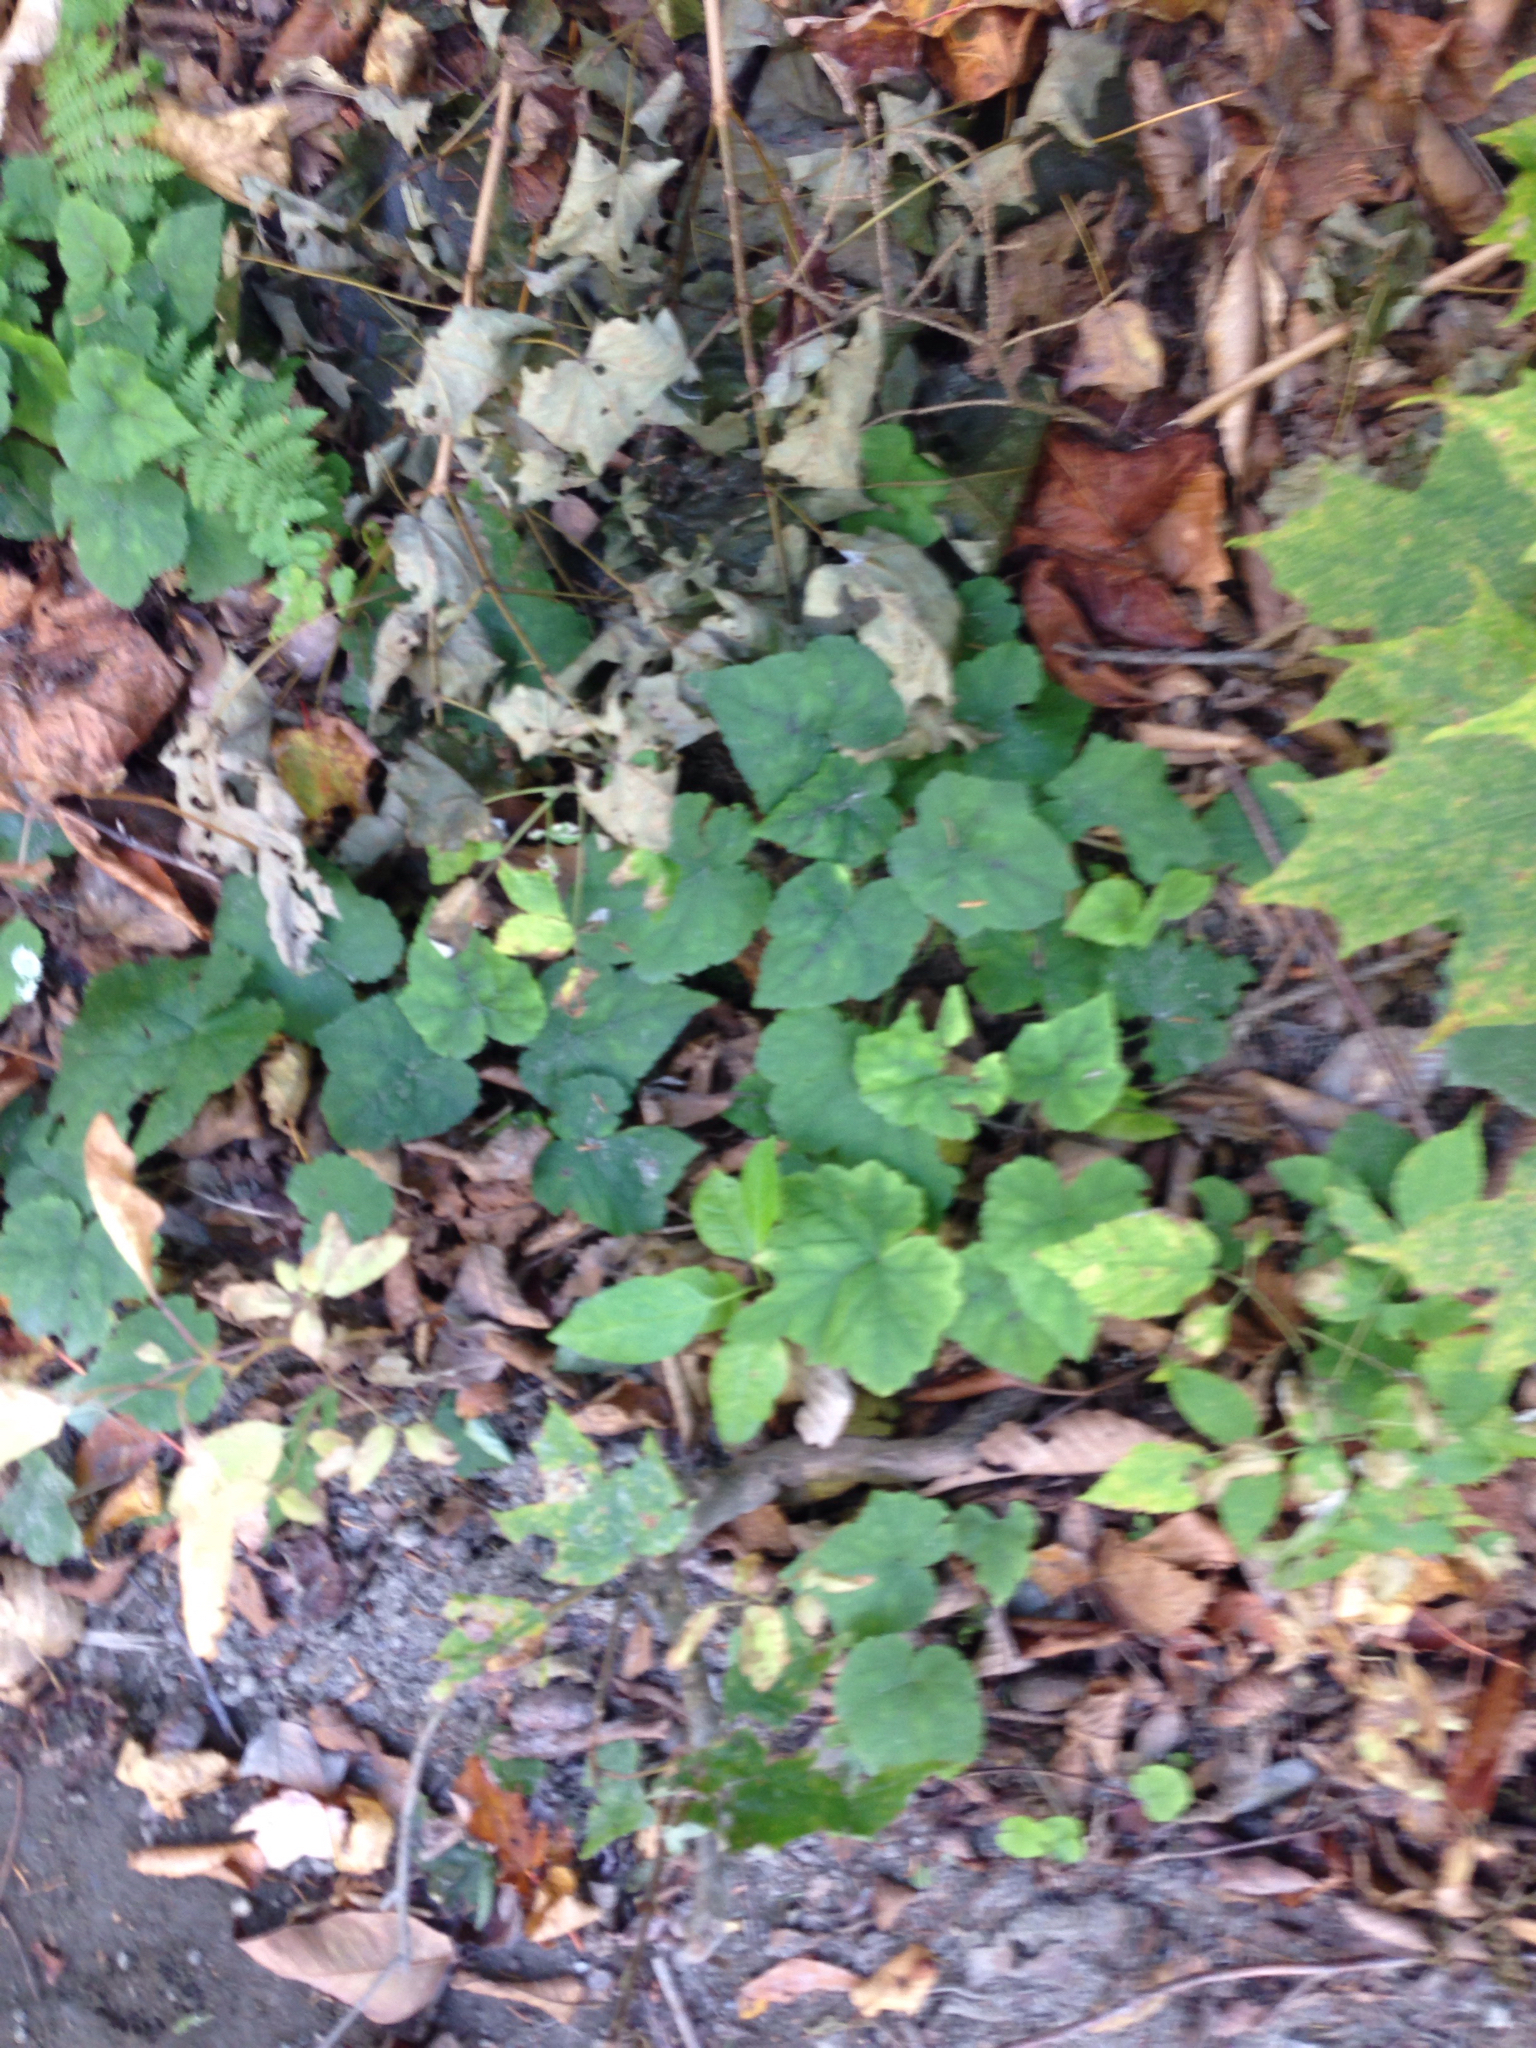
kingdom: Plantae
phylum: Tracheophyta
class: Magnoliopsida
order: Saxifragales
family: Saxifragaceae
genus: Tiarella
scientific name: Tiarella stolonifera
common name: Stoloniferous foamflower
